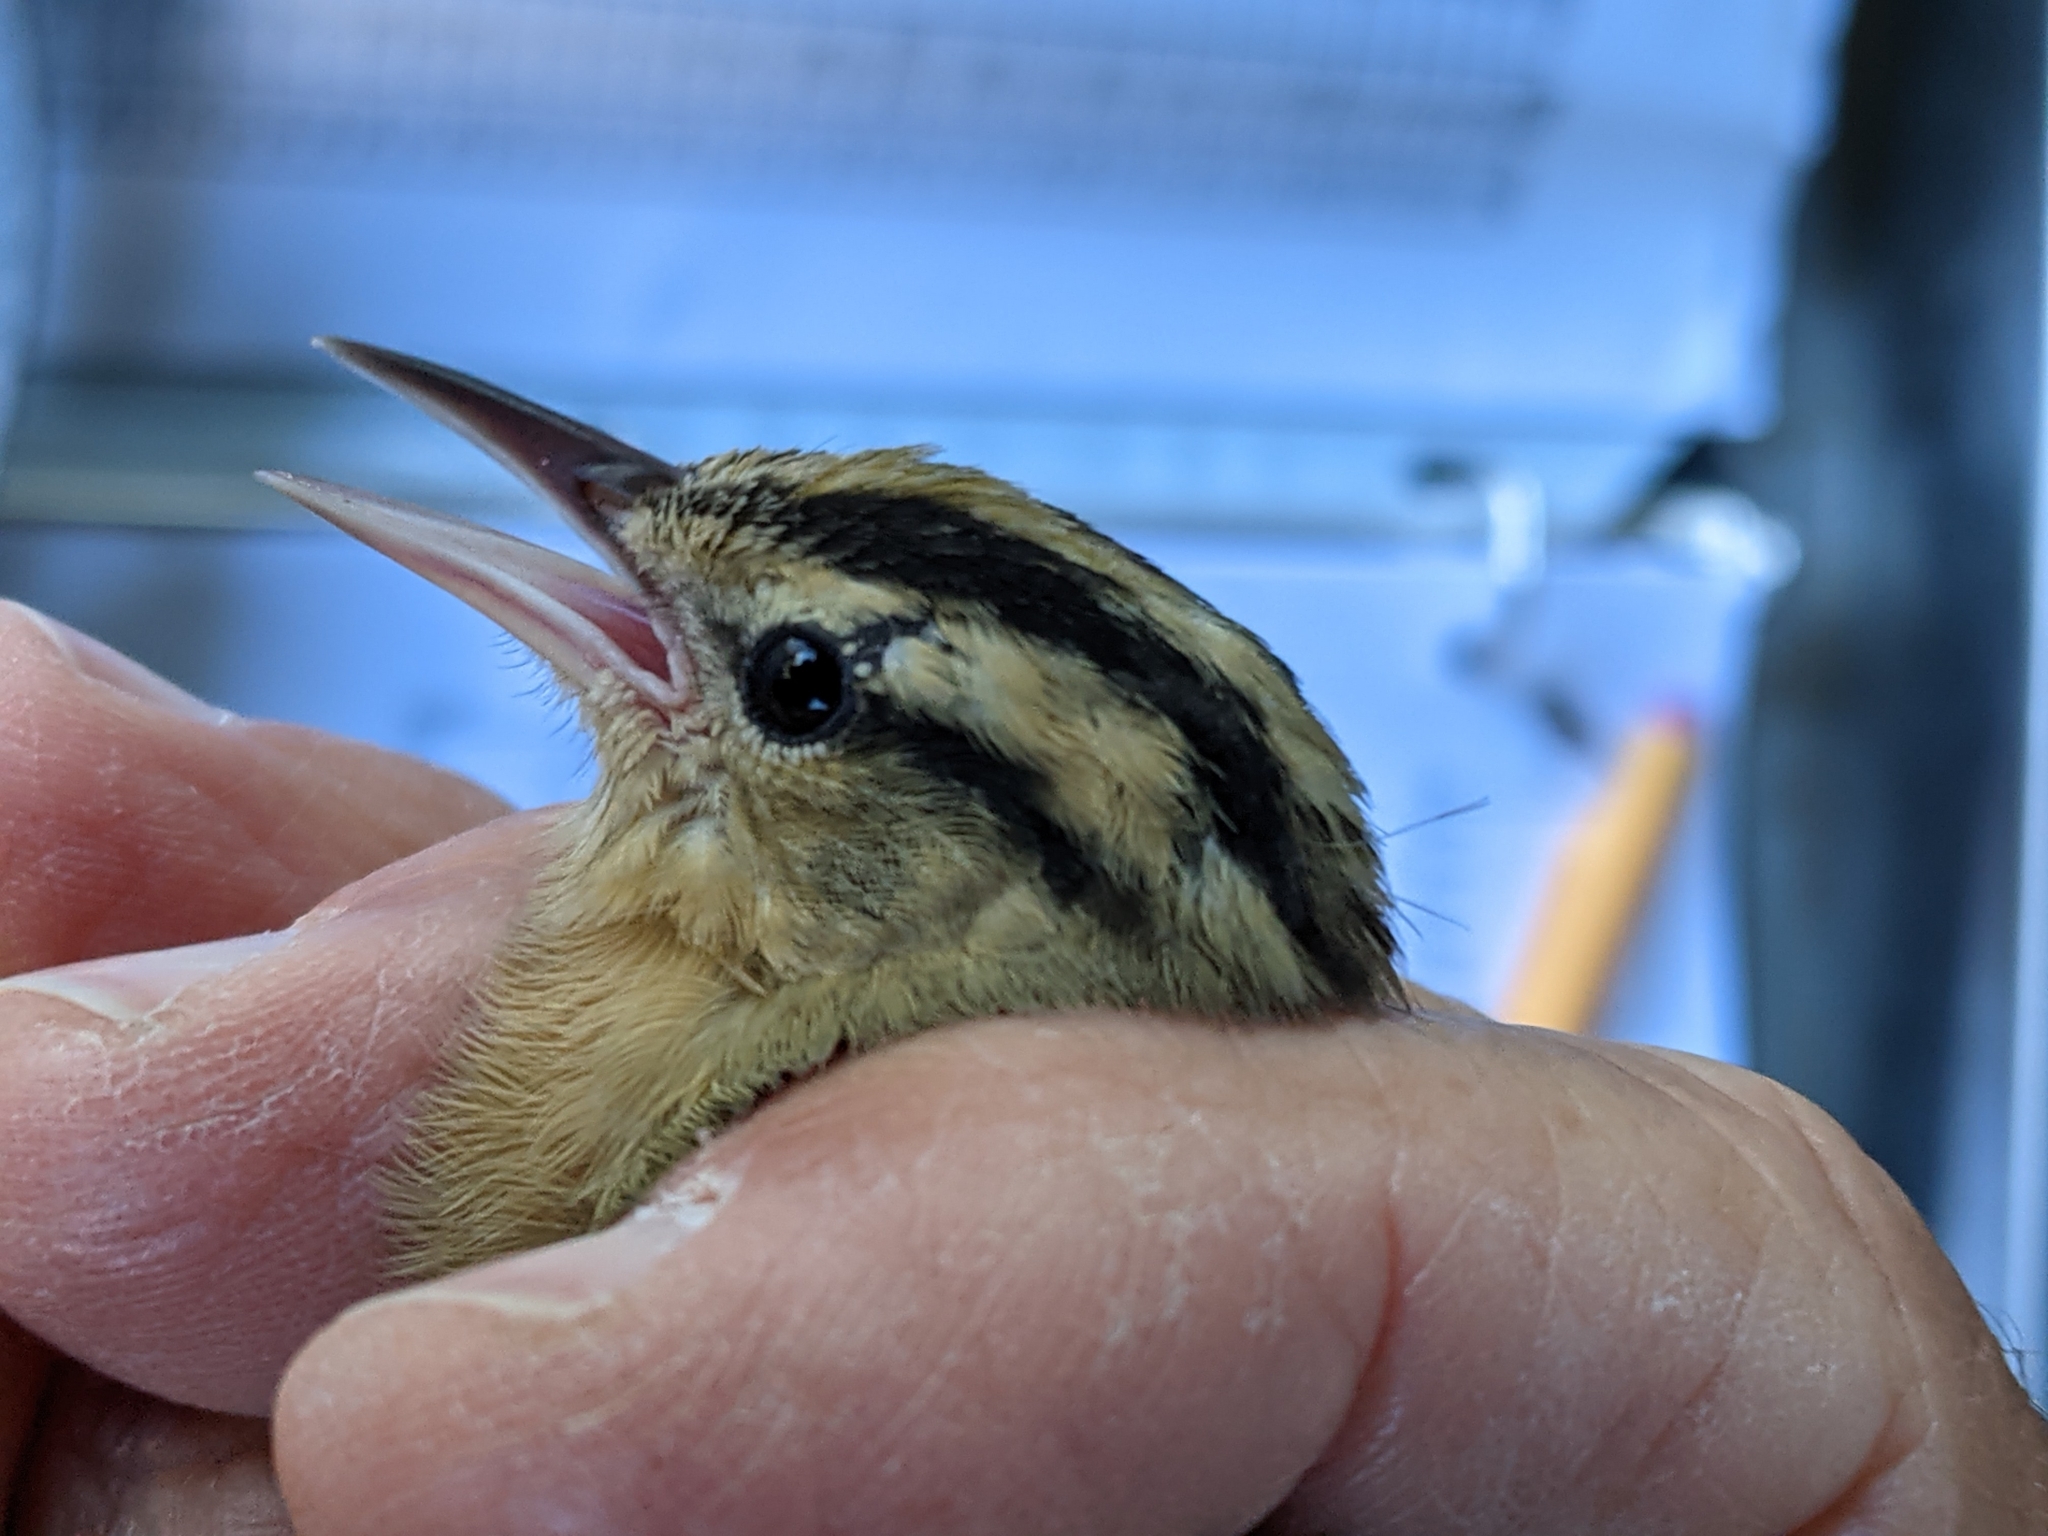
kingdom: Animalia
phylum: Chordata
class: Aves
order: Passeriformes
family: Parulidae
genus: Helmitheros
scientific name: Helmitheros vermivorum
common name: Worm-eating warbler
